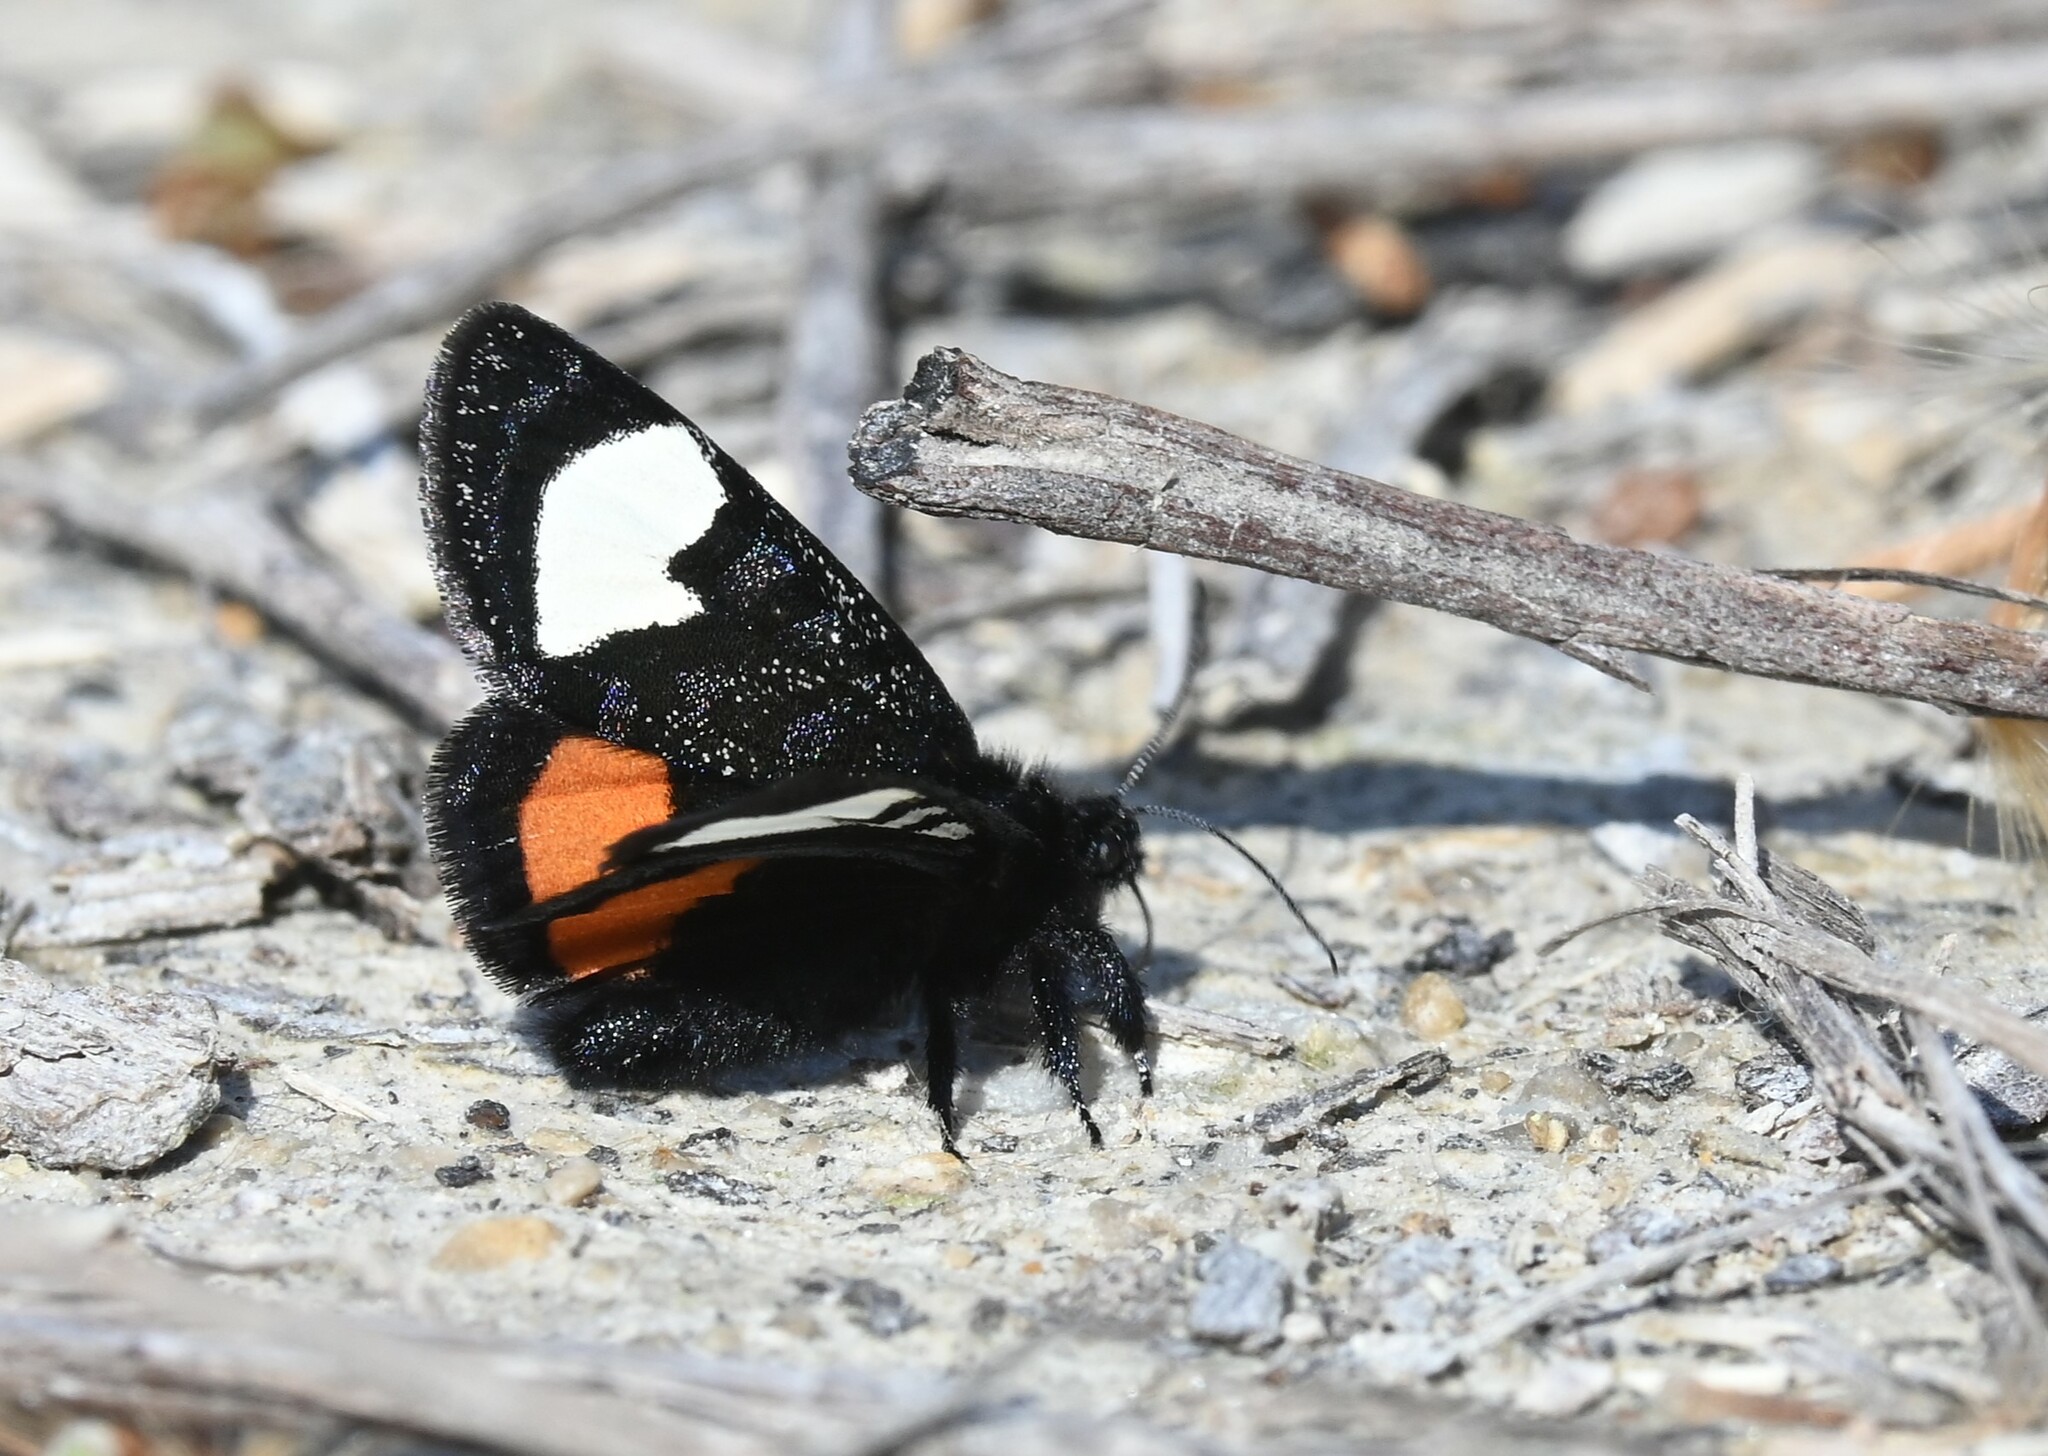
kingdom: Animalia
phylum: Arthropoda
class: Insecta
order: Lepidoptera
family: Noctuidae
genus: Psychomorpha
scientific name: Psychomorpha epimenis
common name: Grapevine epimenis moth
